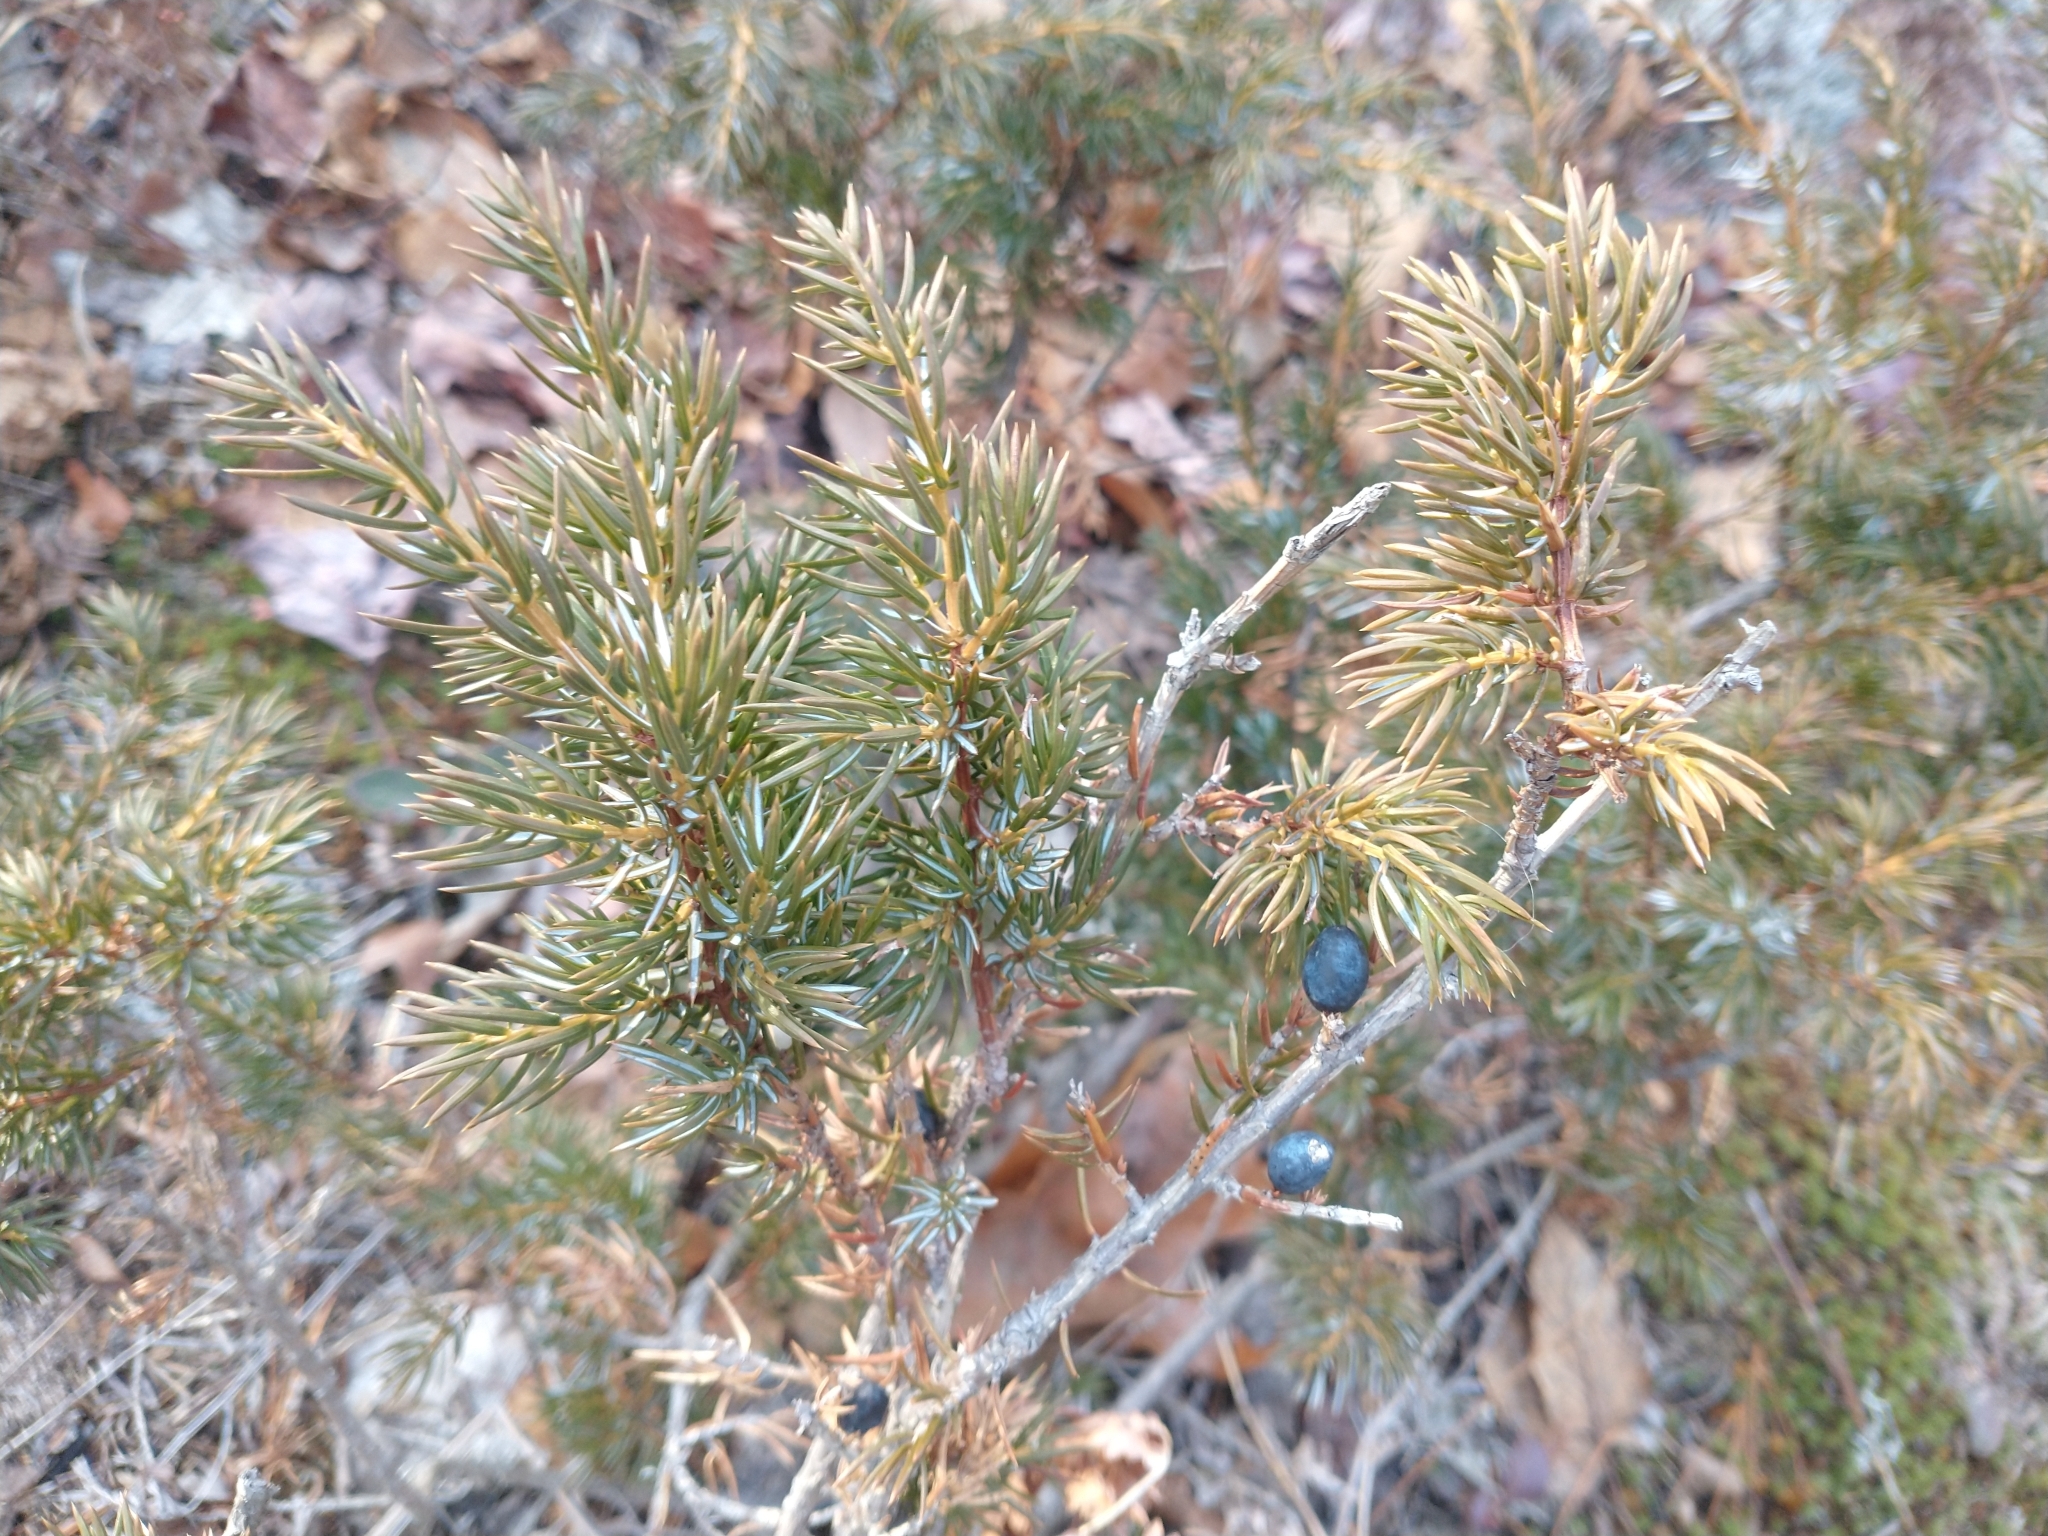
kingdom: Plantae
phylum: Tracheophyta
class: Pinopsida
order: Pinales
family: Cupressaceae
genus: Juniperus
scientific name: Juniperus communis
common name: Common juniper
